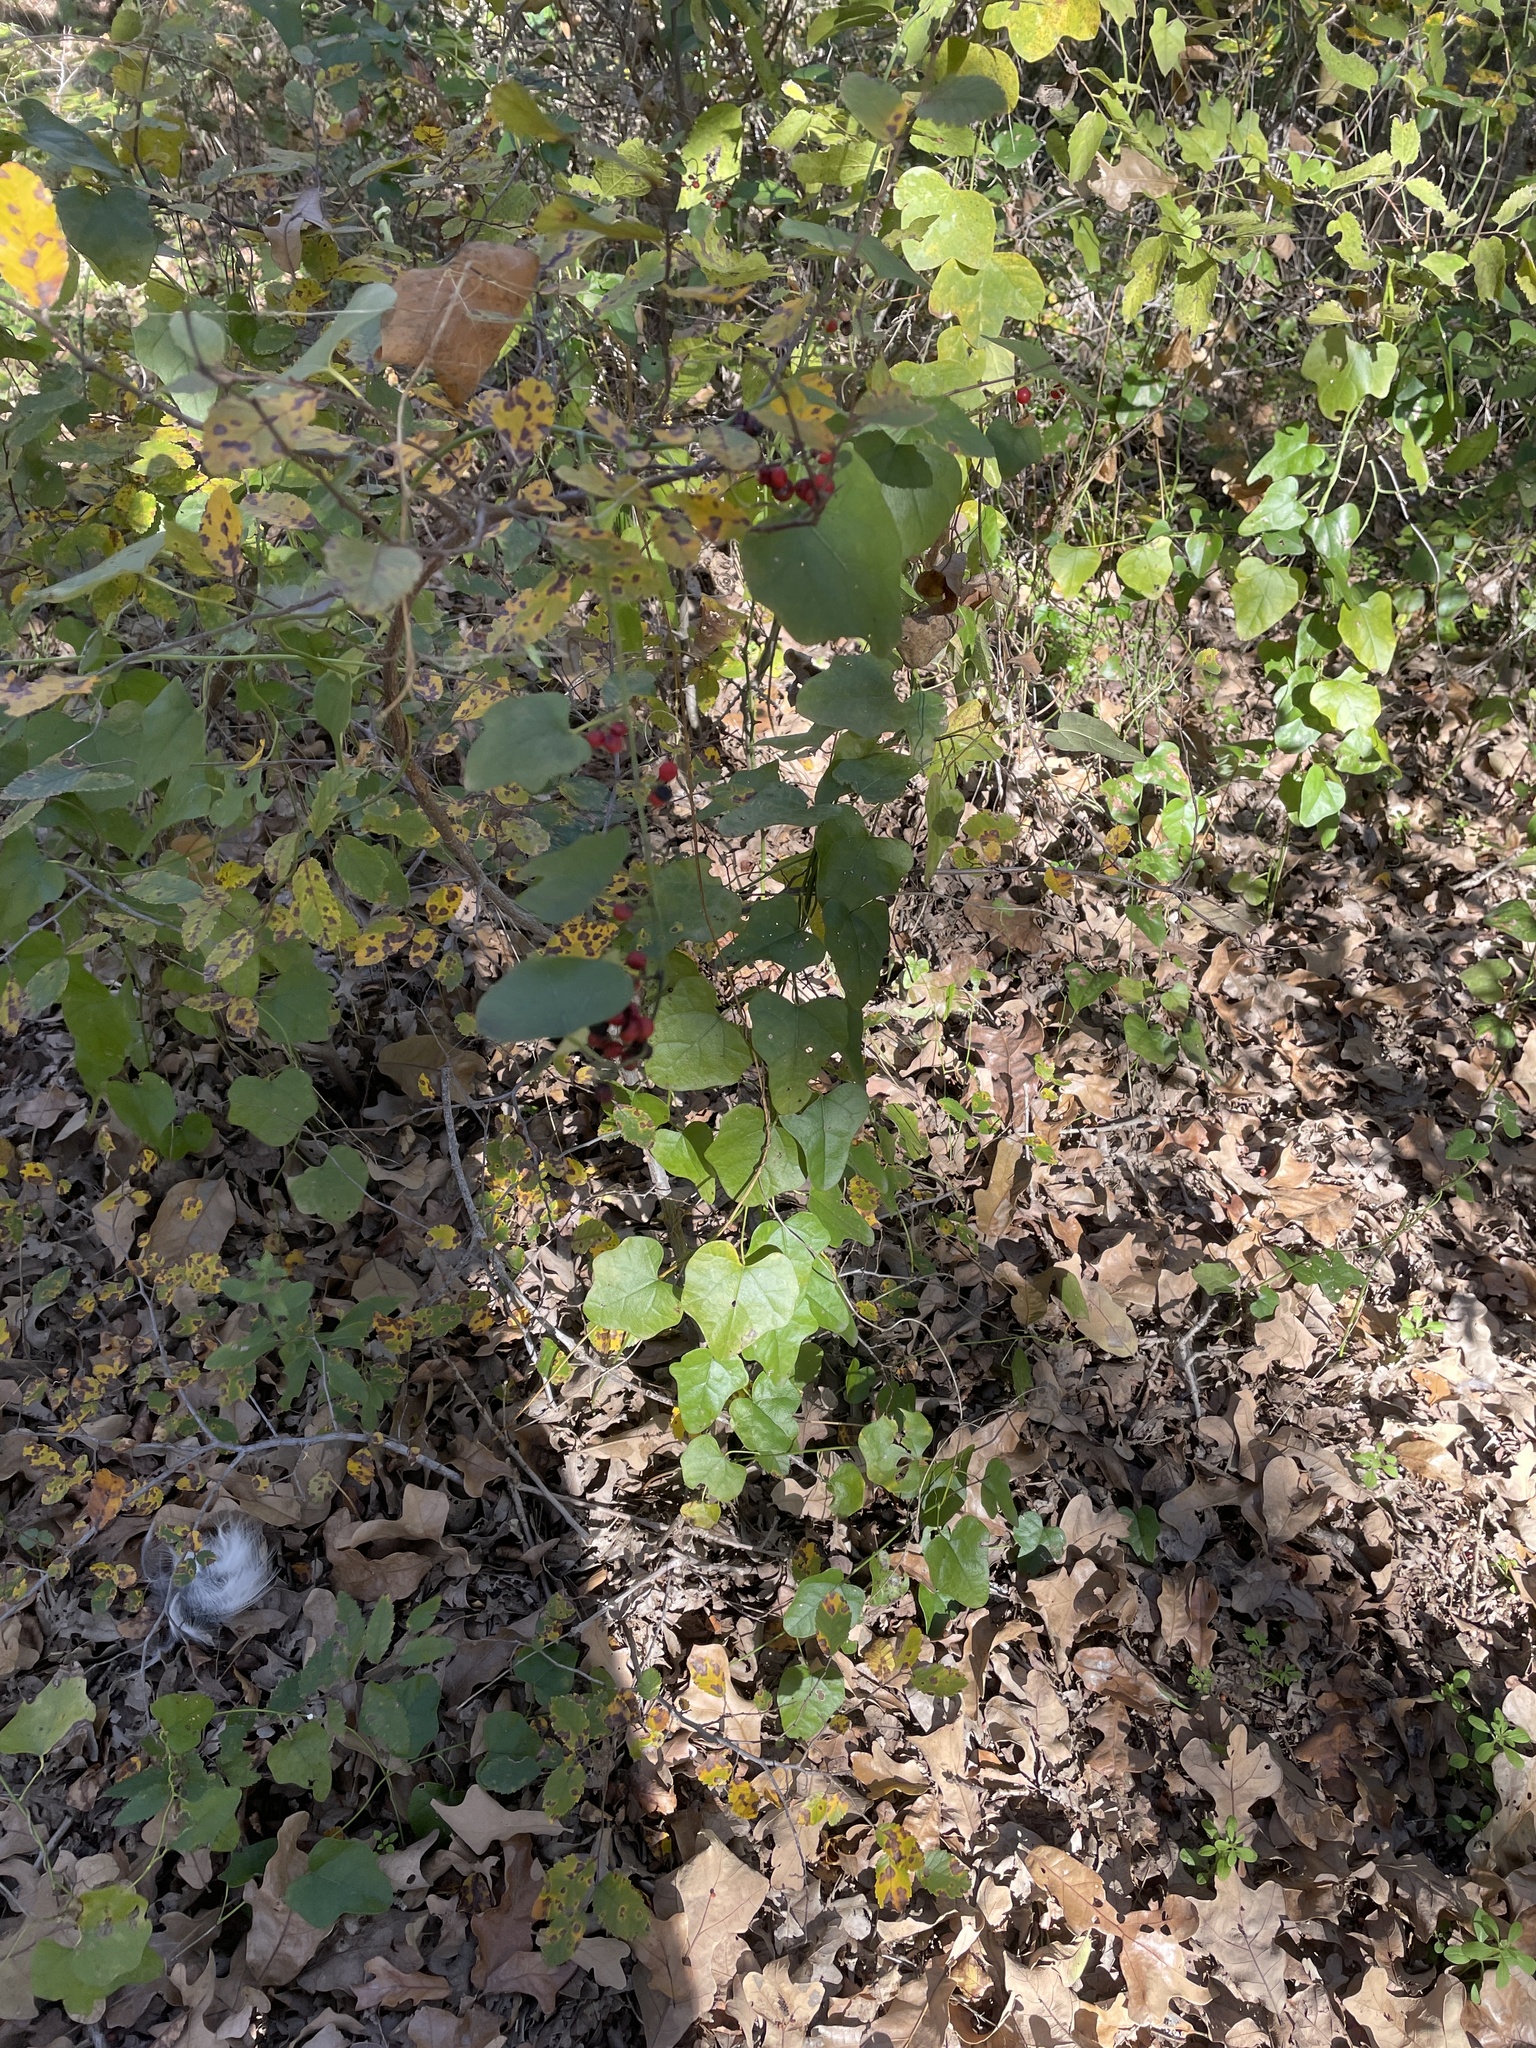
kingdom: Plantae
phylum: Tracheophyta
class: Magnoliopsida
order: Ranunculales
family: Menispermaceae
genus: Cocculus
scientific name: Cocculus carolinus
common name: Carolina moonseed
